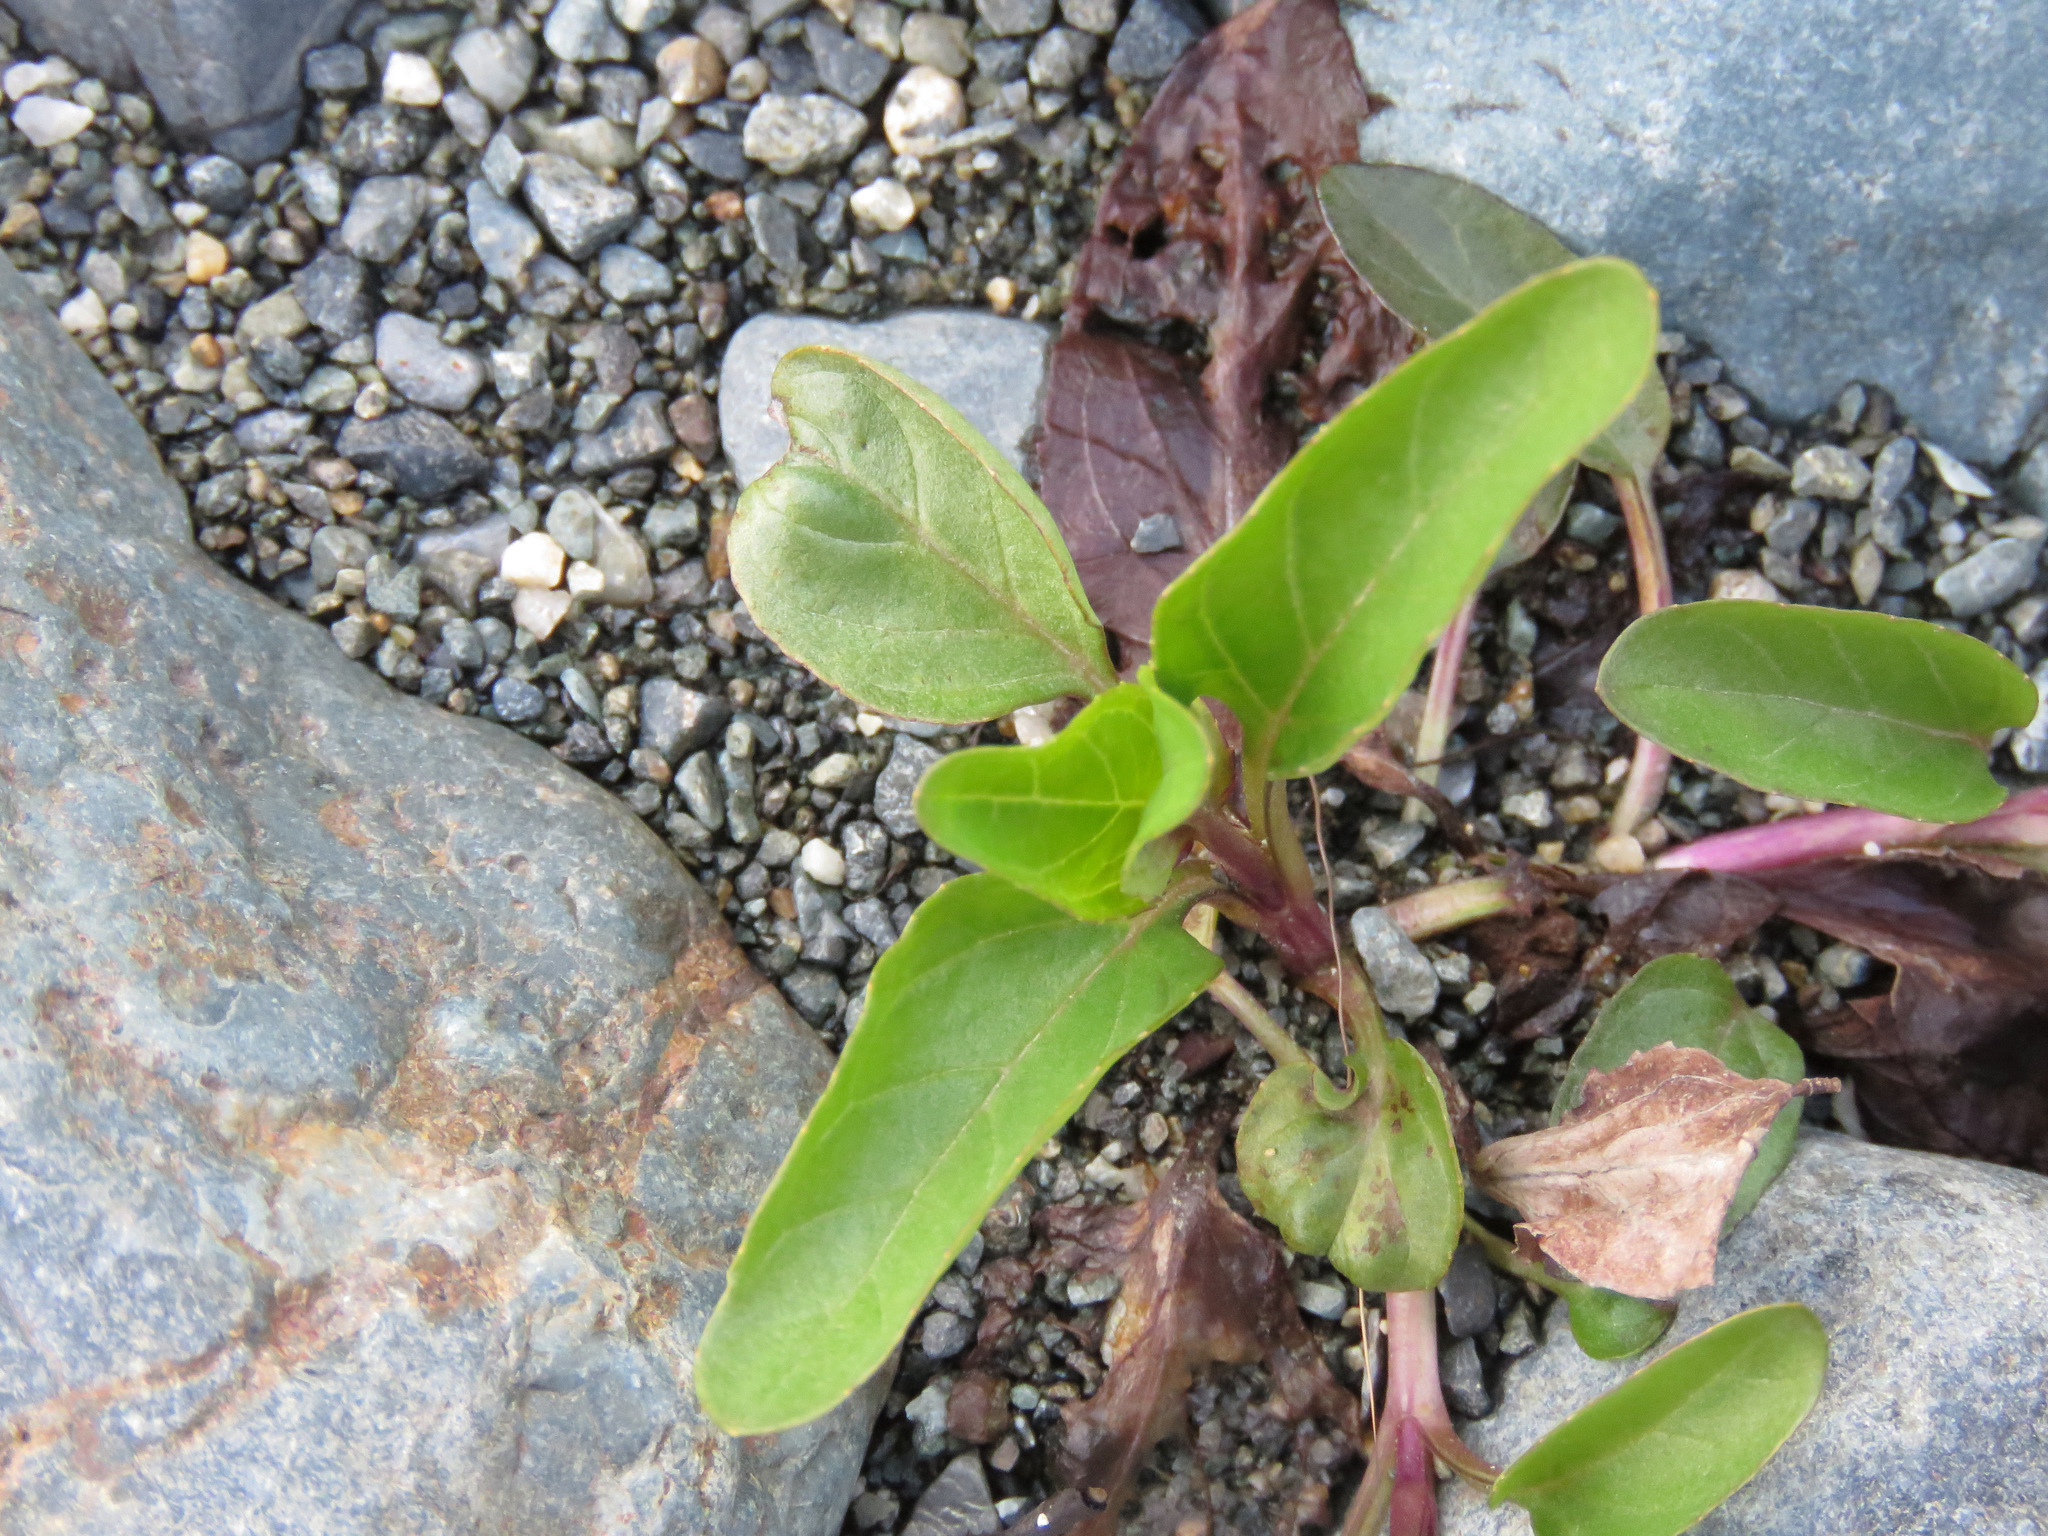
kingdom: Plantae
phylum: Tracheophyta
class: Magnoliopsida
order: Lamiales
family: Plantaginaceae
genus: Veronica
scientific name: Veronica americana
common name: American brooklime
